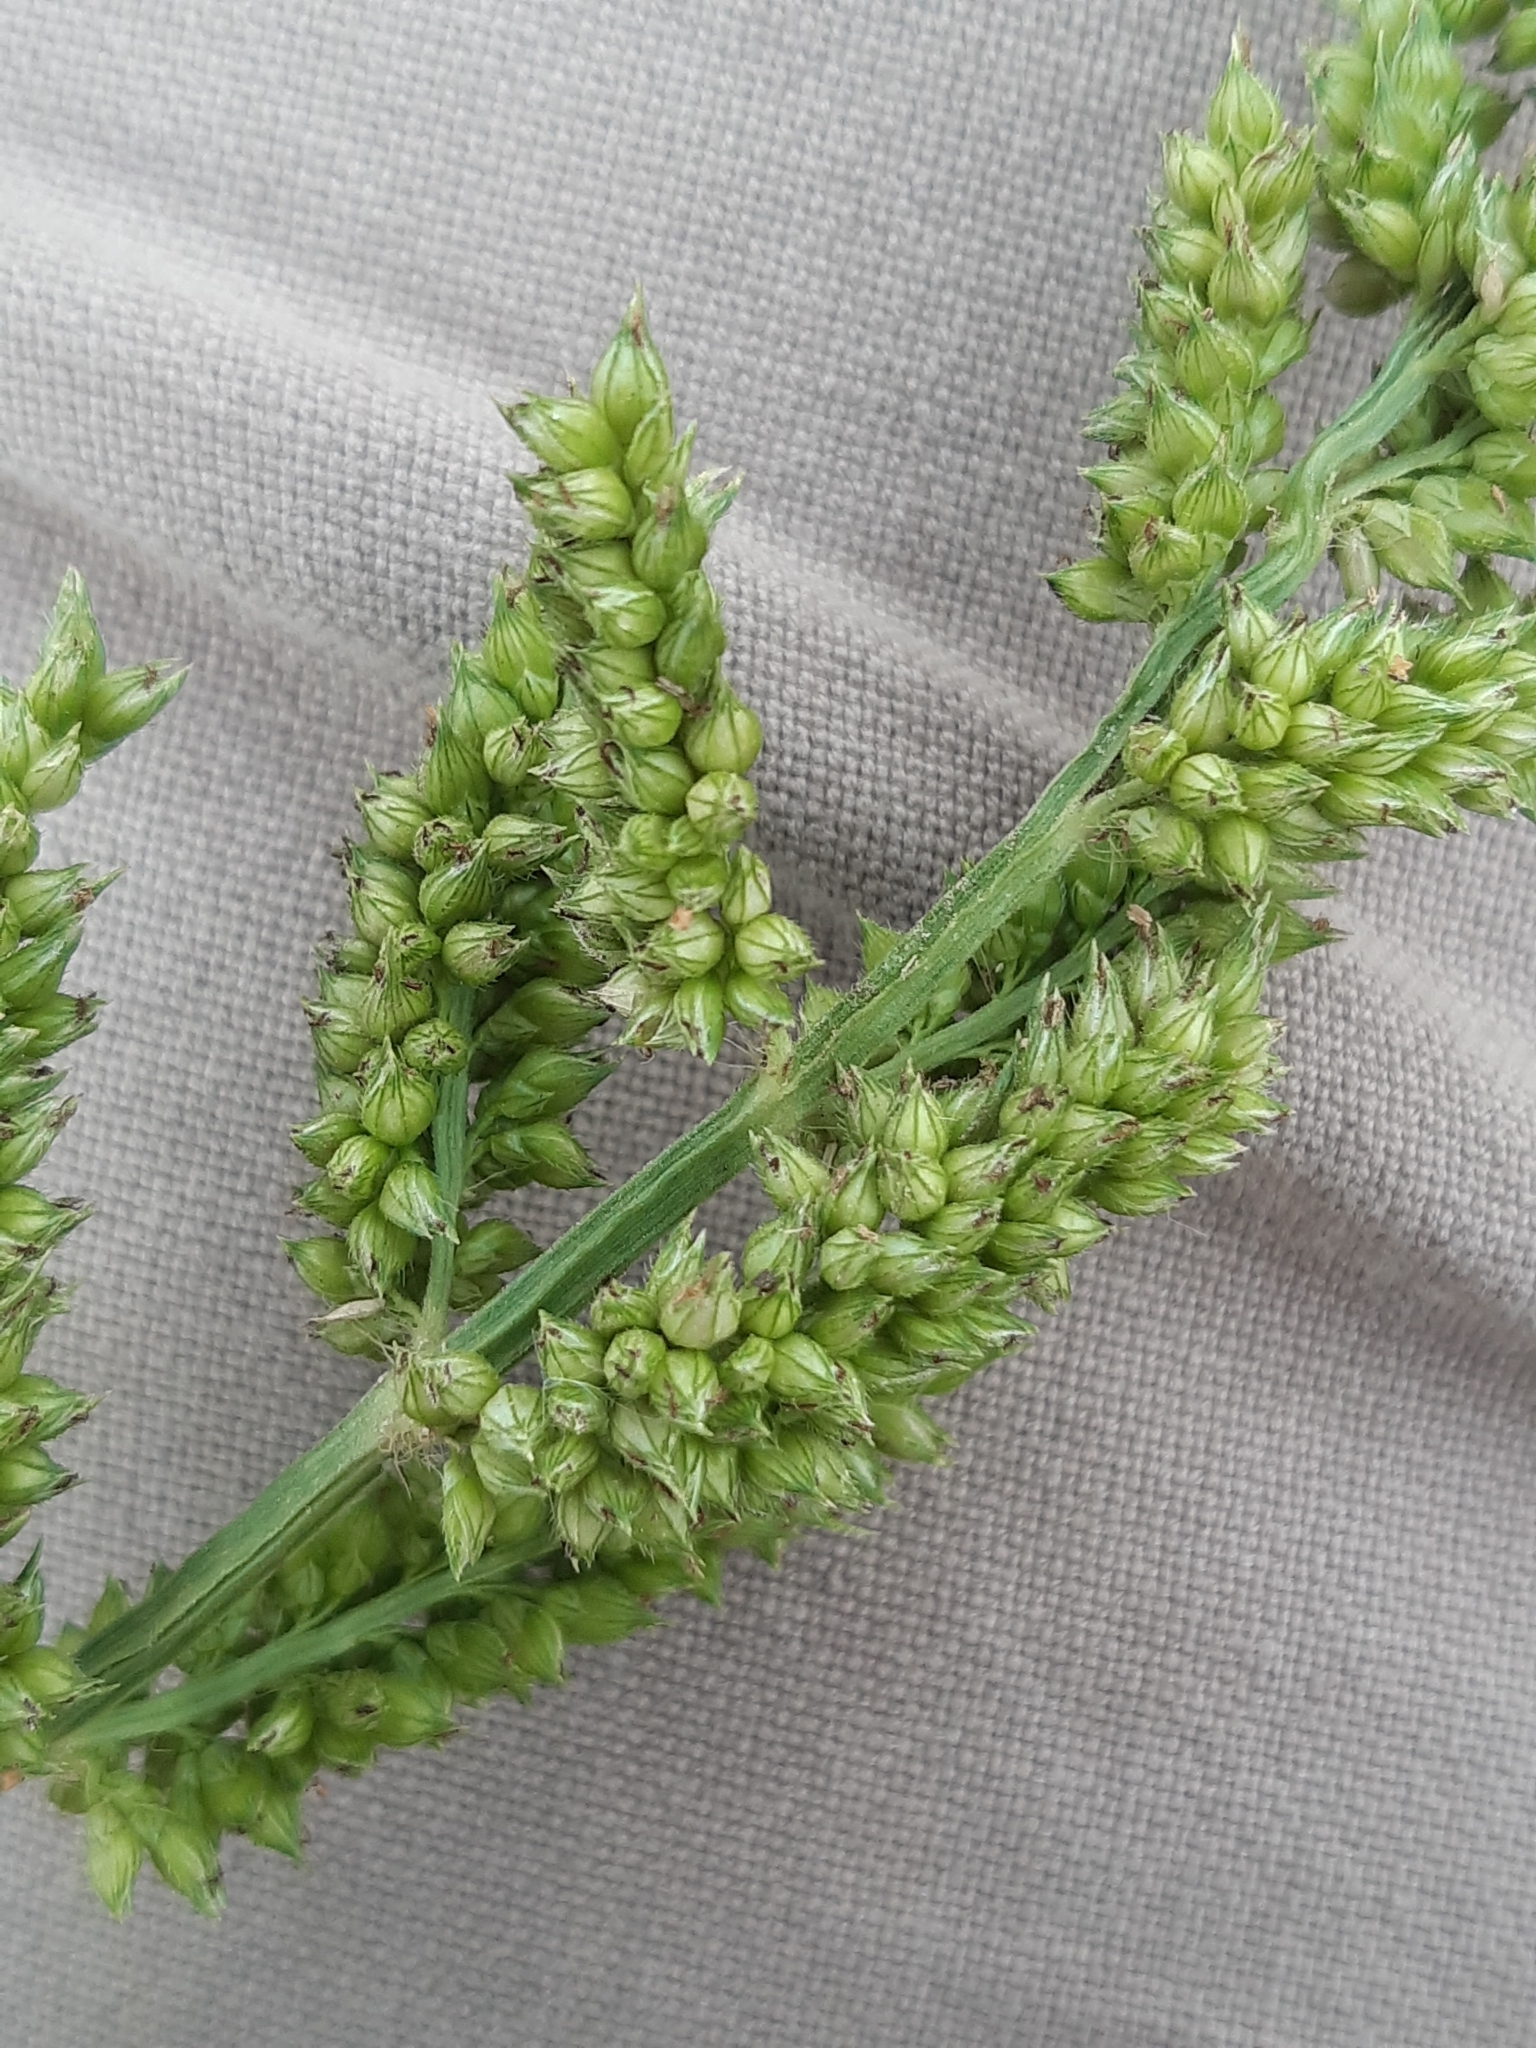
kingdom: Plantae
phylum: Tracheophyta
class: Liliopsida
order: Poales
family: Poaceae
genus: Echinochloa
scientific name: Echinochloa crus-galli
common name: Cockspur
